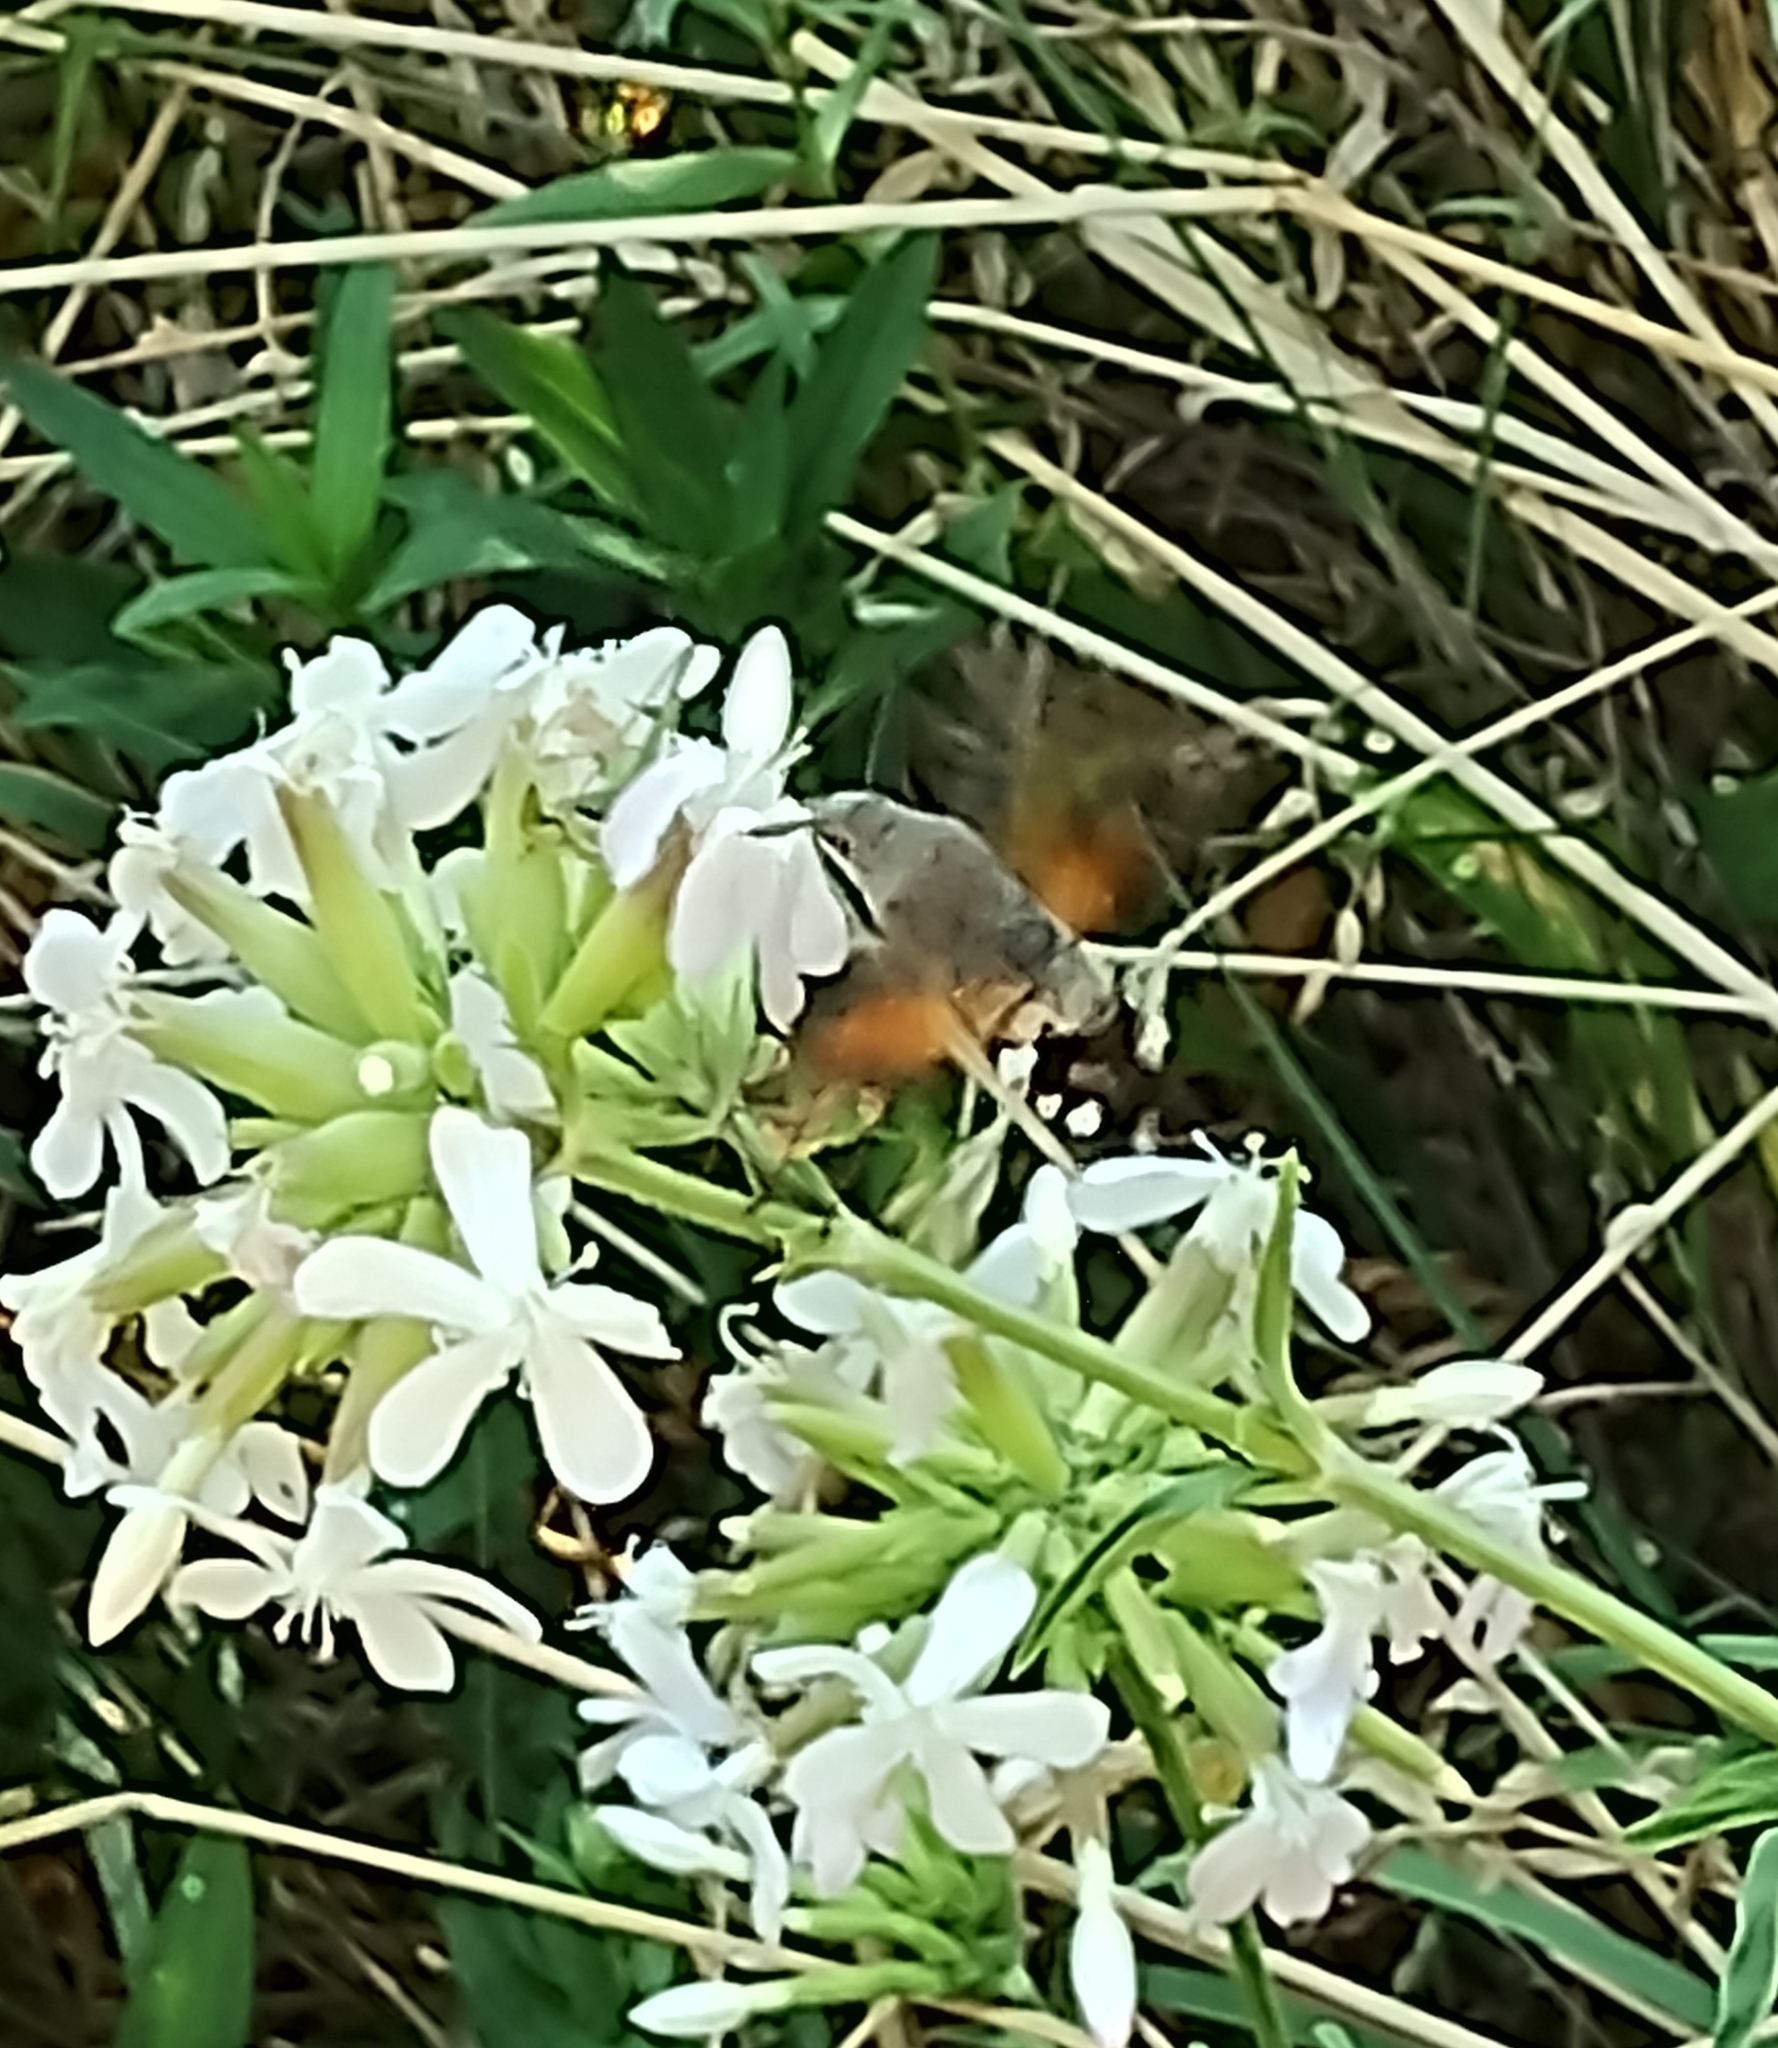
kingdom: Animalia
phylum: Arthropoda
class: Insecta
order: Lepidoptera
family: Sphingidae
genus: Macroglossum
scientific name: Macroglossum stellatarum
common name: Humming-bird hawk-moth
